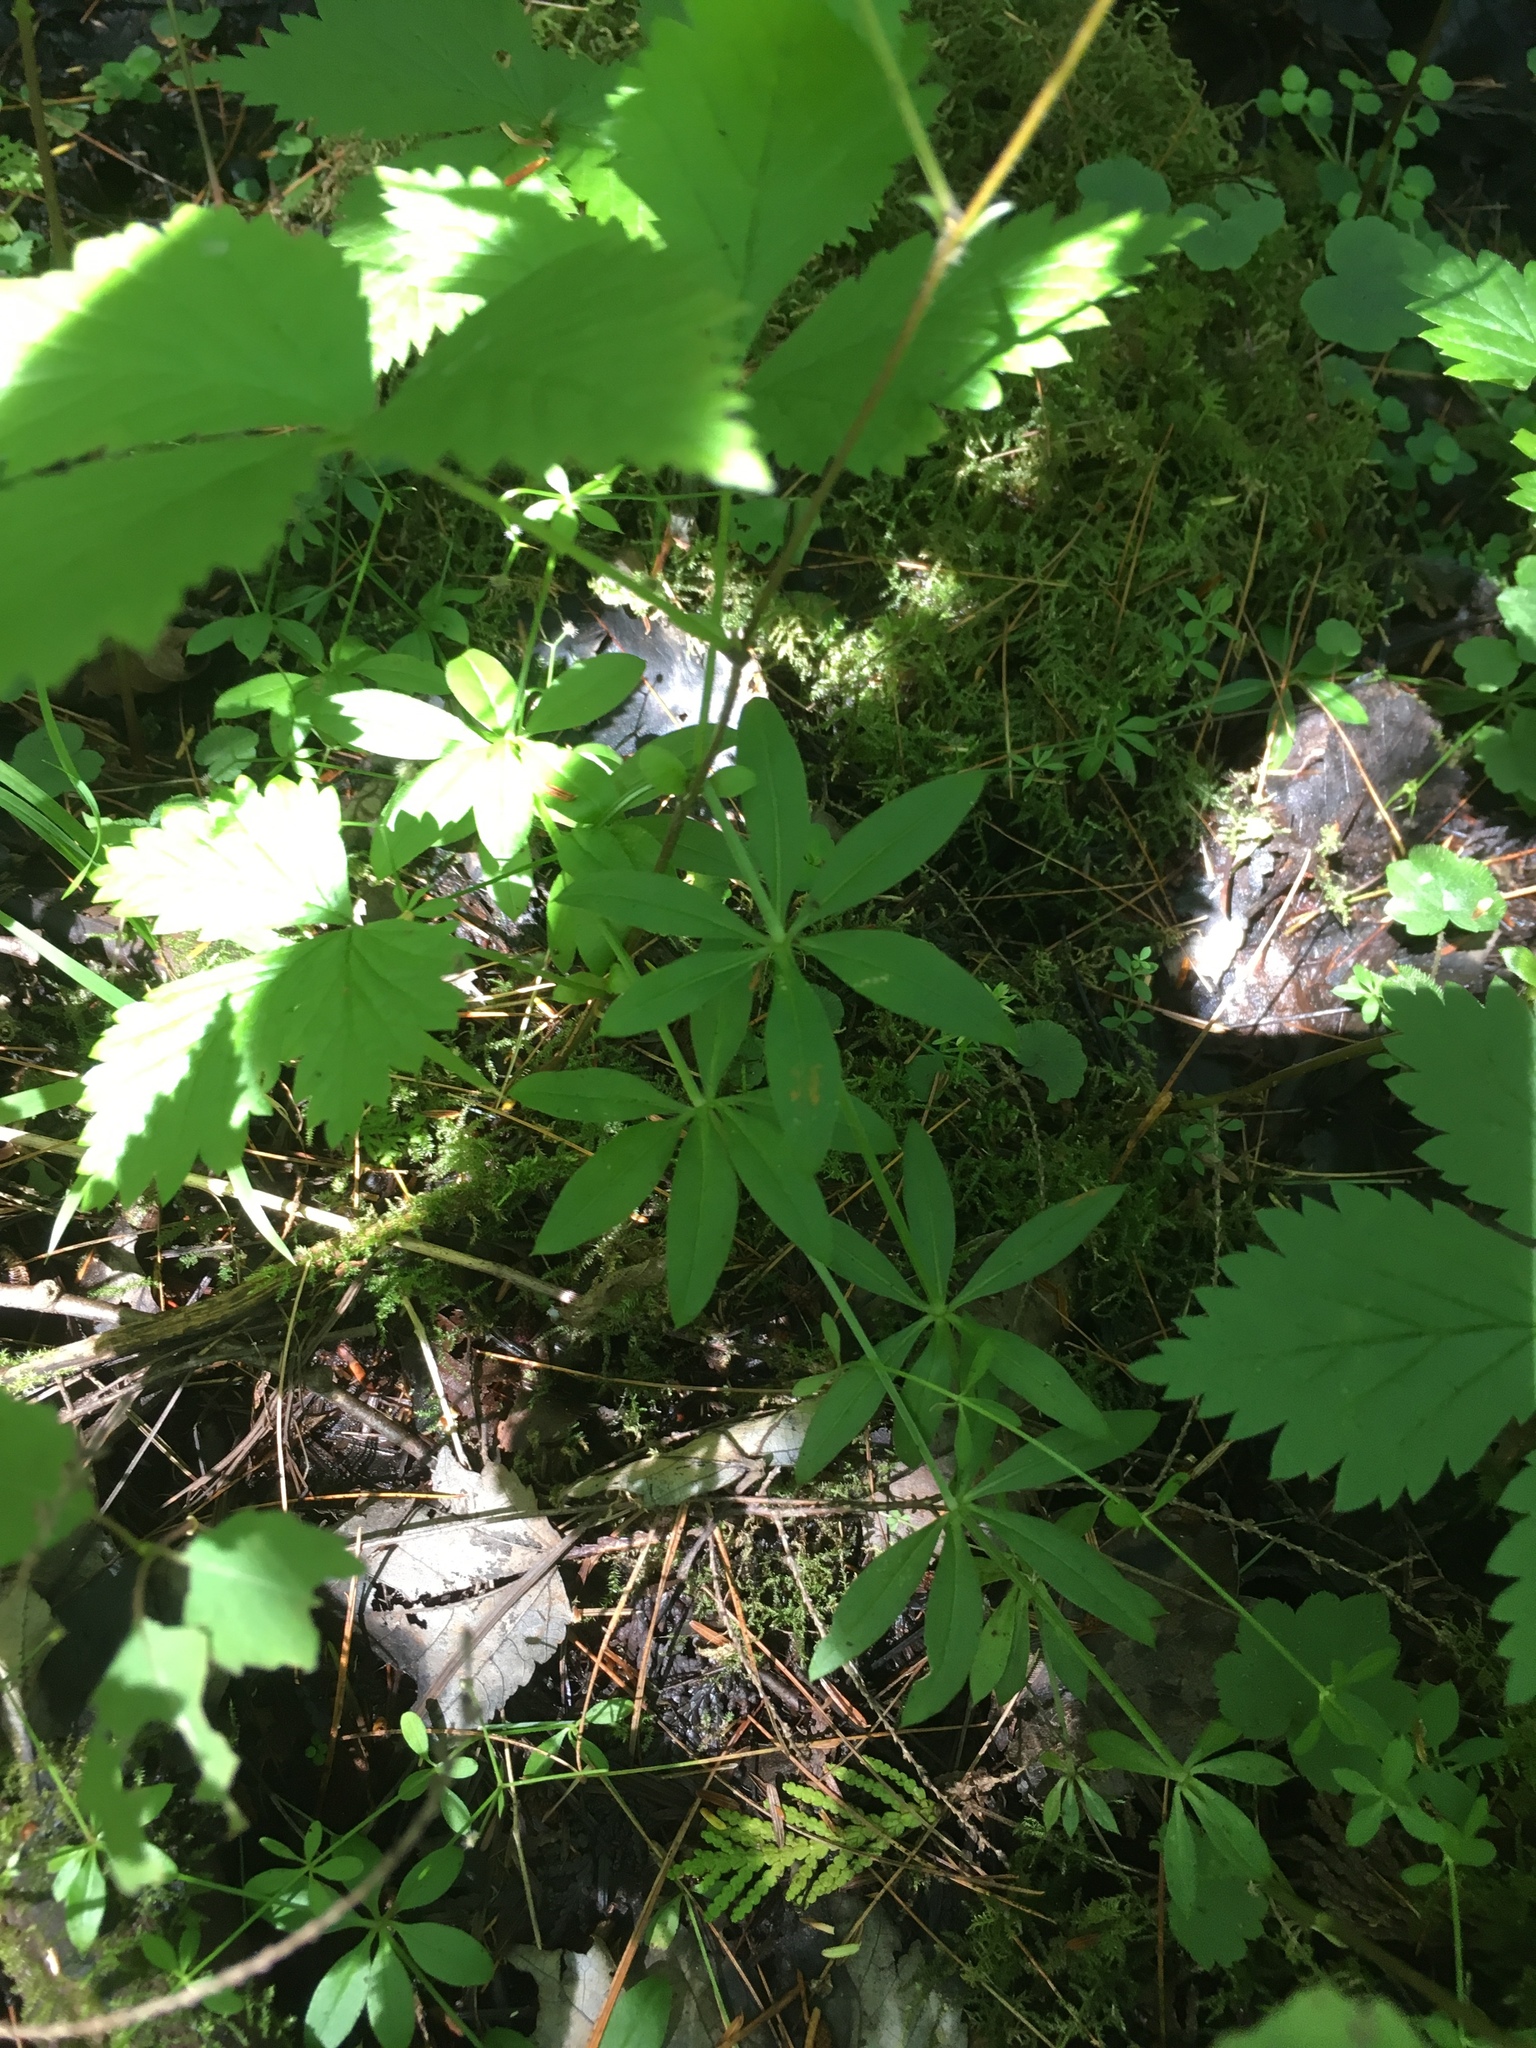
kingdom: Plantae
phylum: Tracheophyta
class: Magnoliopsida
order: Gentianales
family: Rubiaceae
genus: Galium
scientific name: Galium triflorum
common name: Fragrant bedstraw
